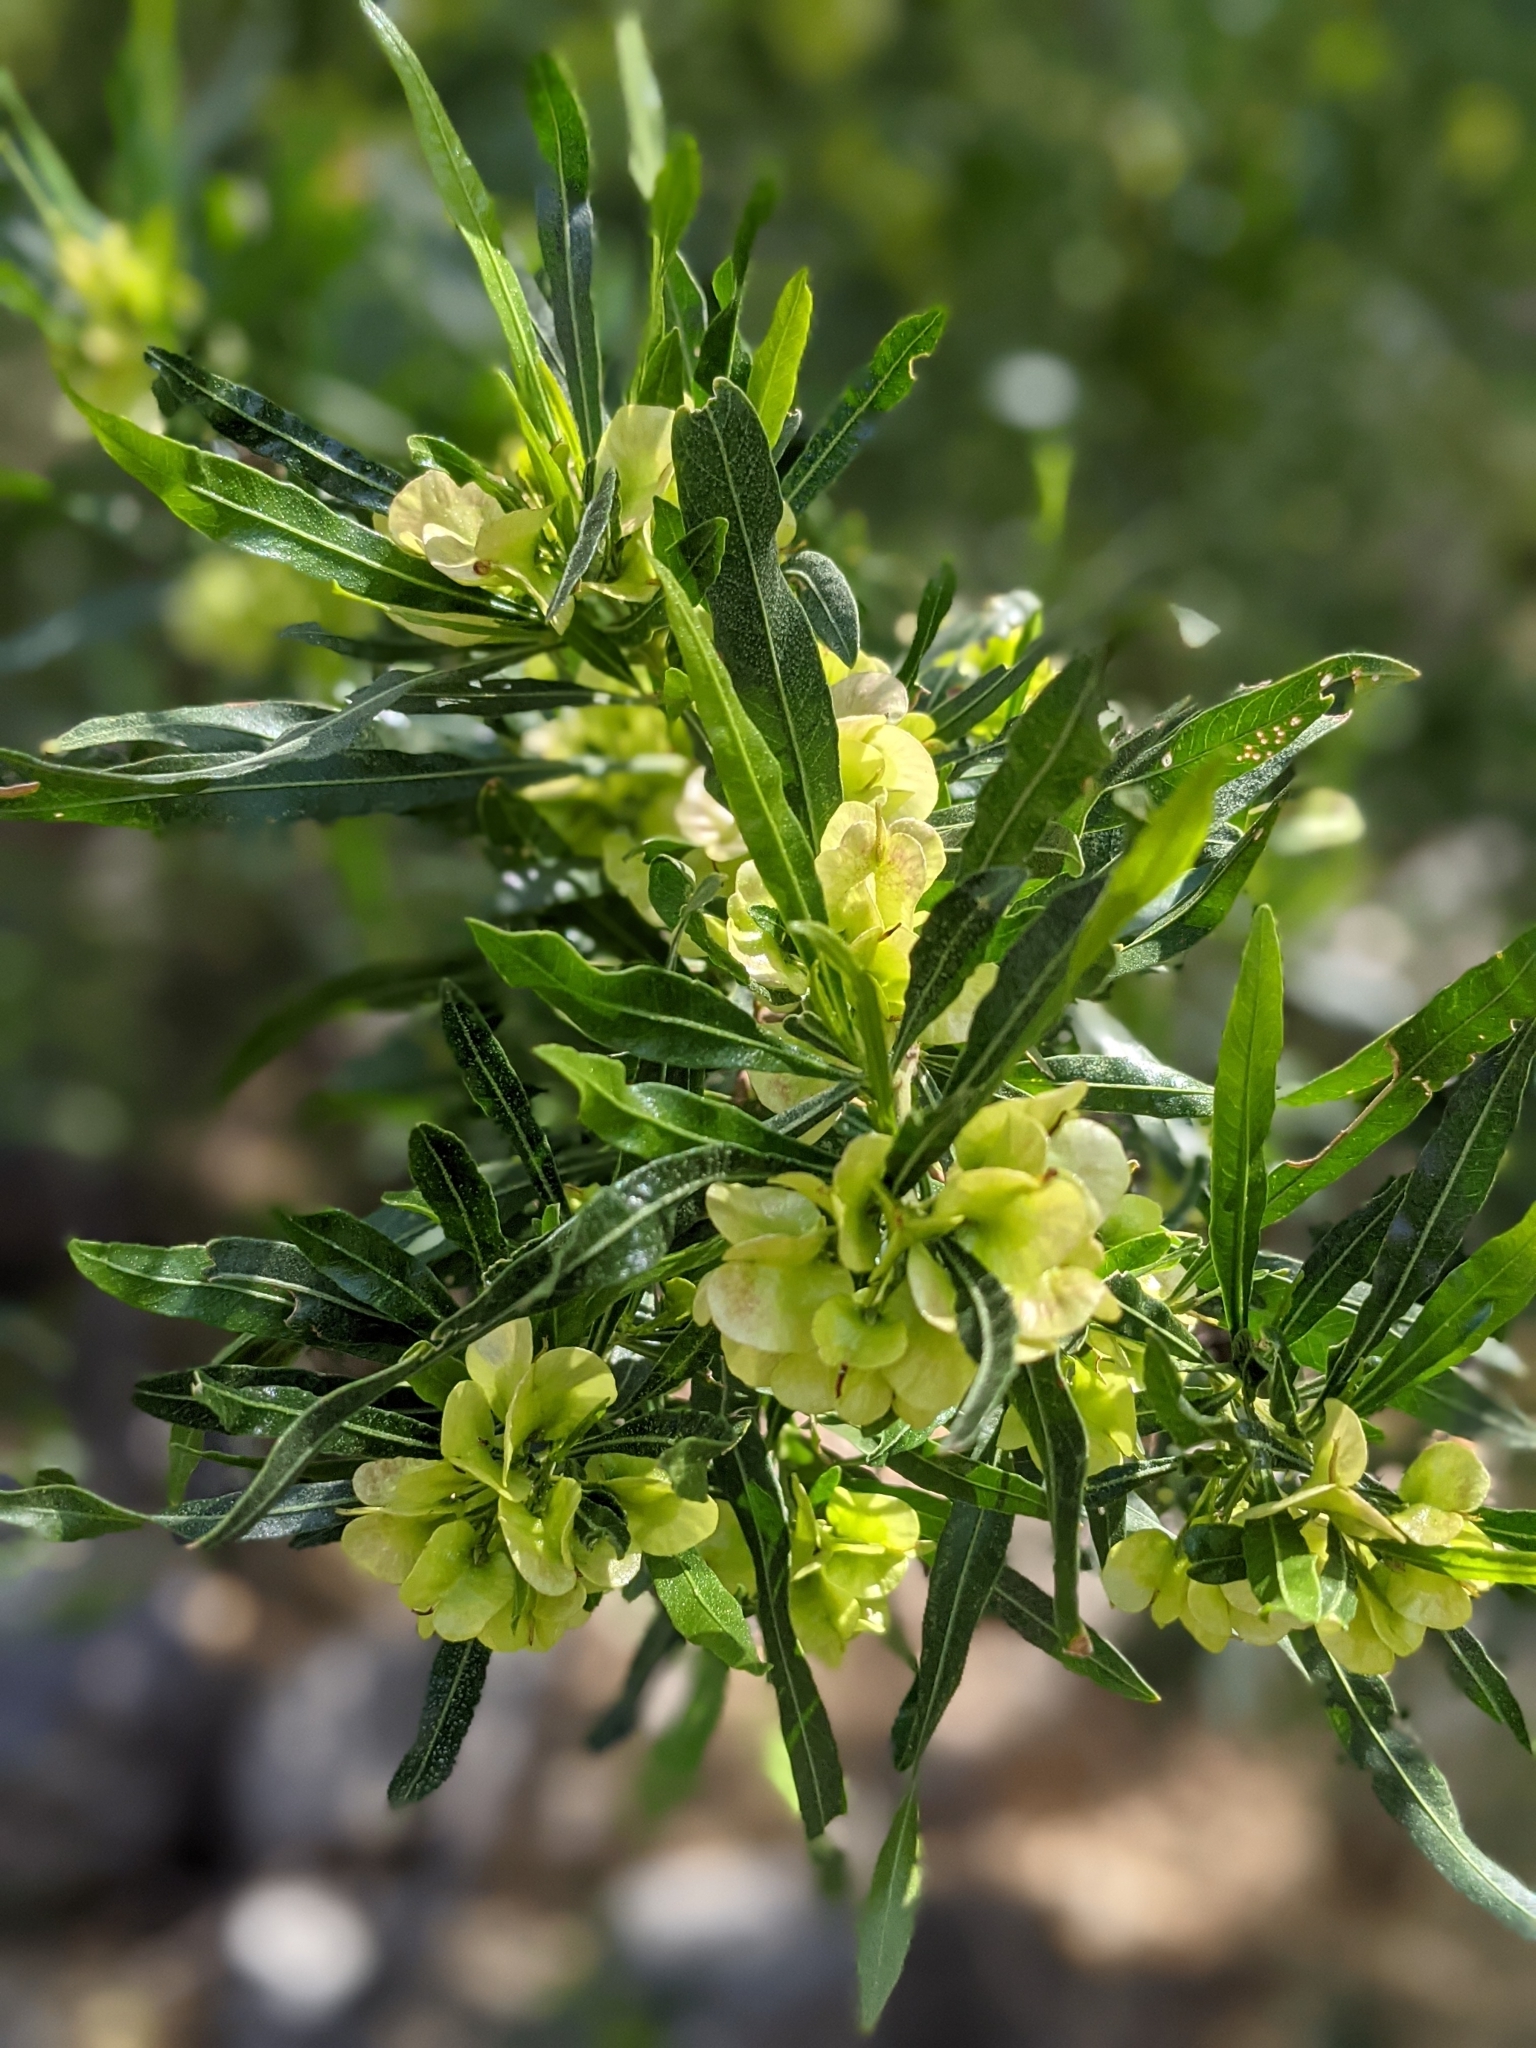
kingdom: Plantae
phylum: Tracheophyta
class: Magnoliopsida
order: Sapindales
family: Sapindaceae
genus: Dodonaea
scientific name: Dodonaea viscosa
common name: Hopbush
